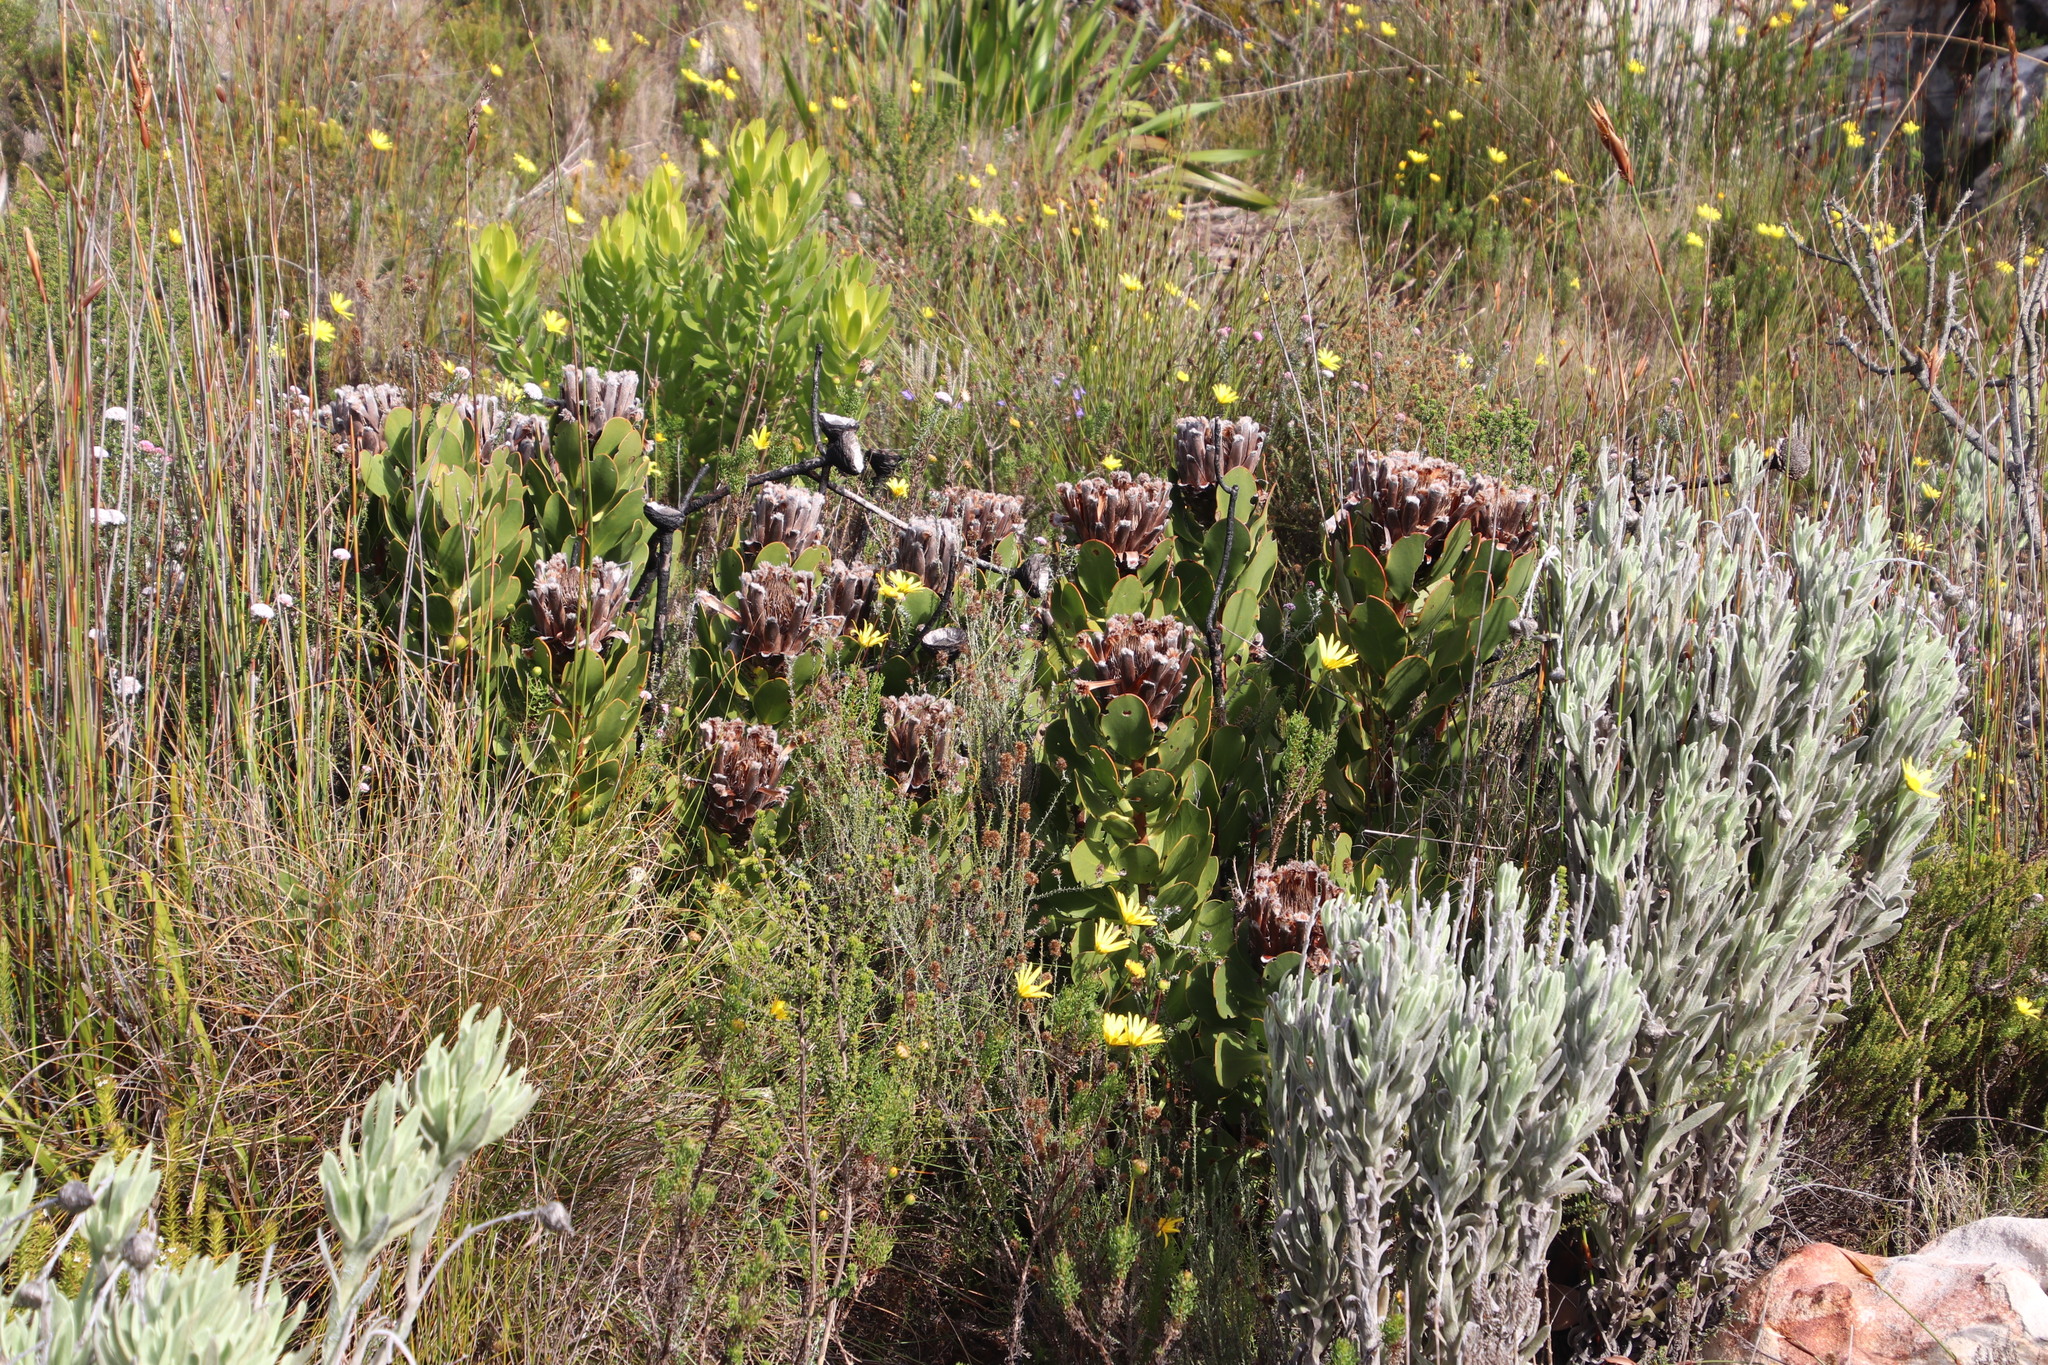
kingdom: Plantae
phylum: Tracheophyta
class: Magnoliopsida
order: Proteales
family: Proteaceae
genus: Protea
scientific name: Protea speciosa
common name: Brown-beard sugarbush
